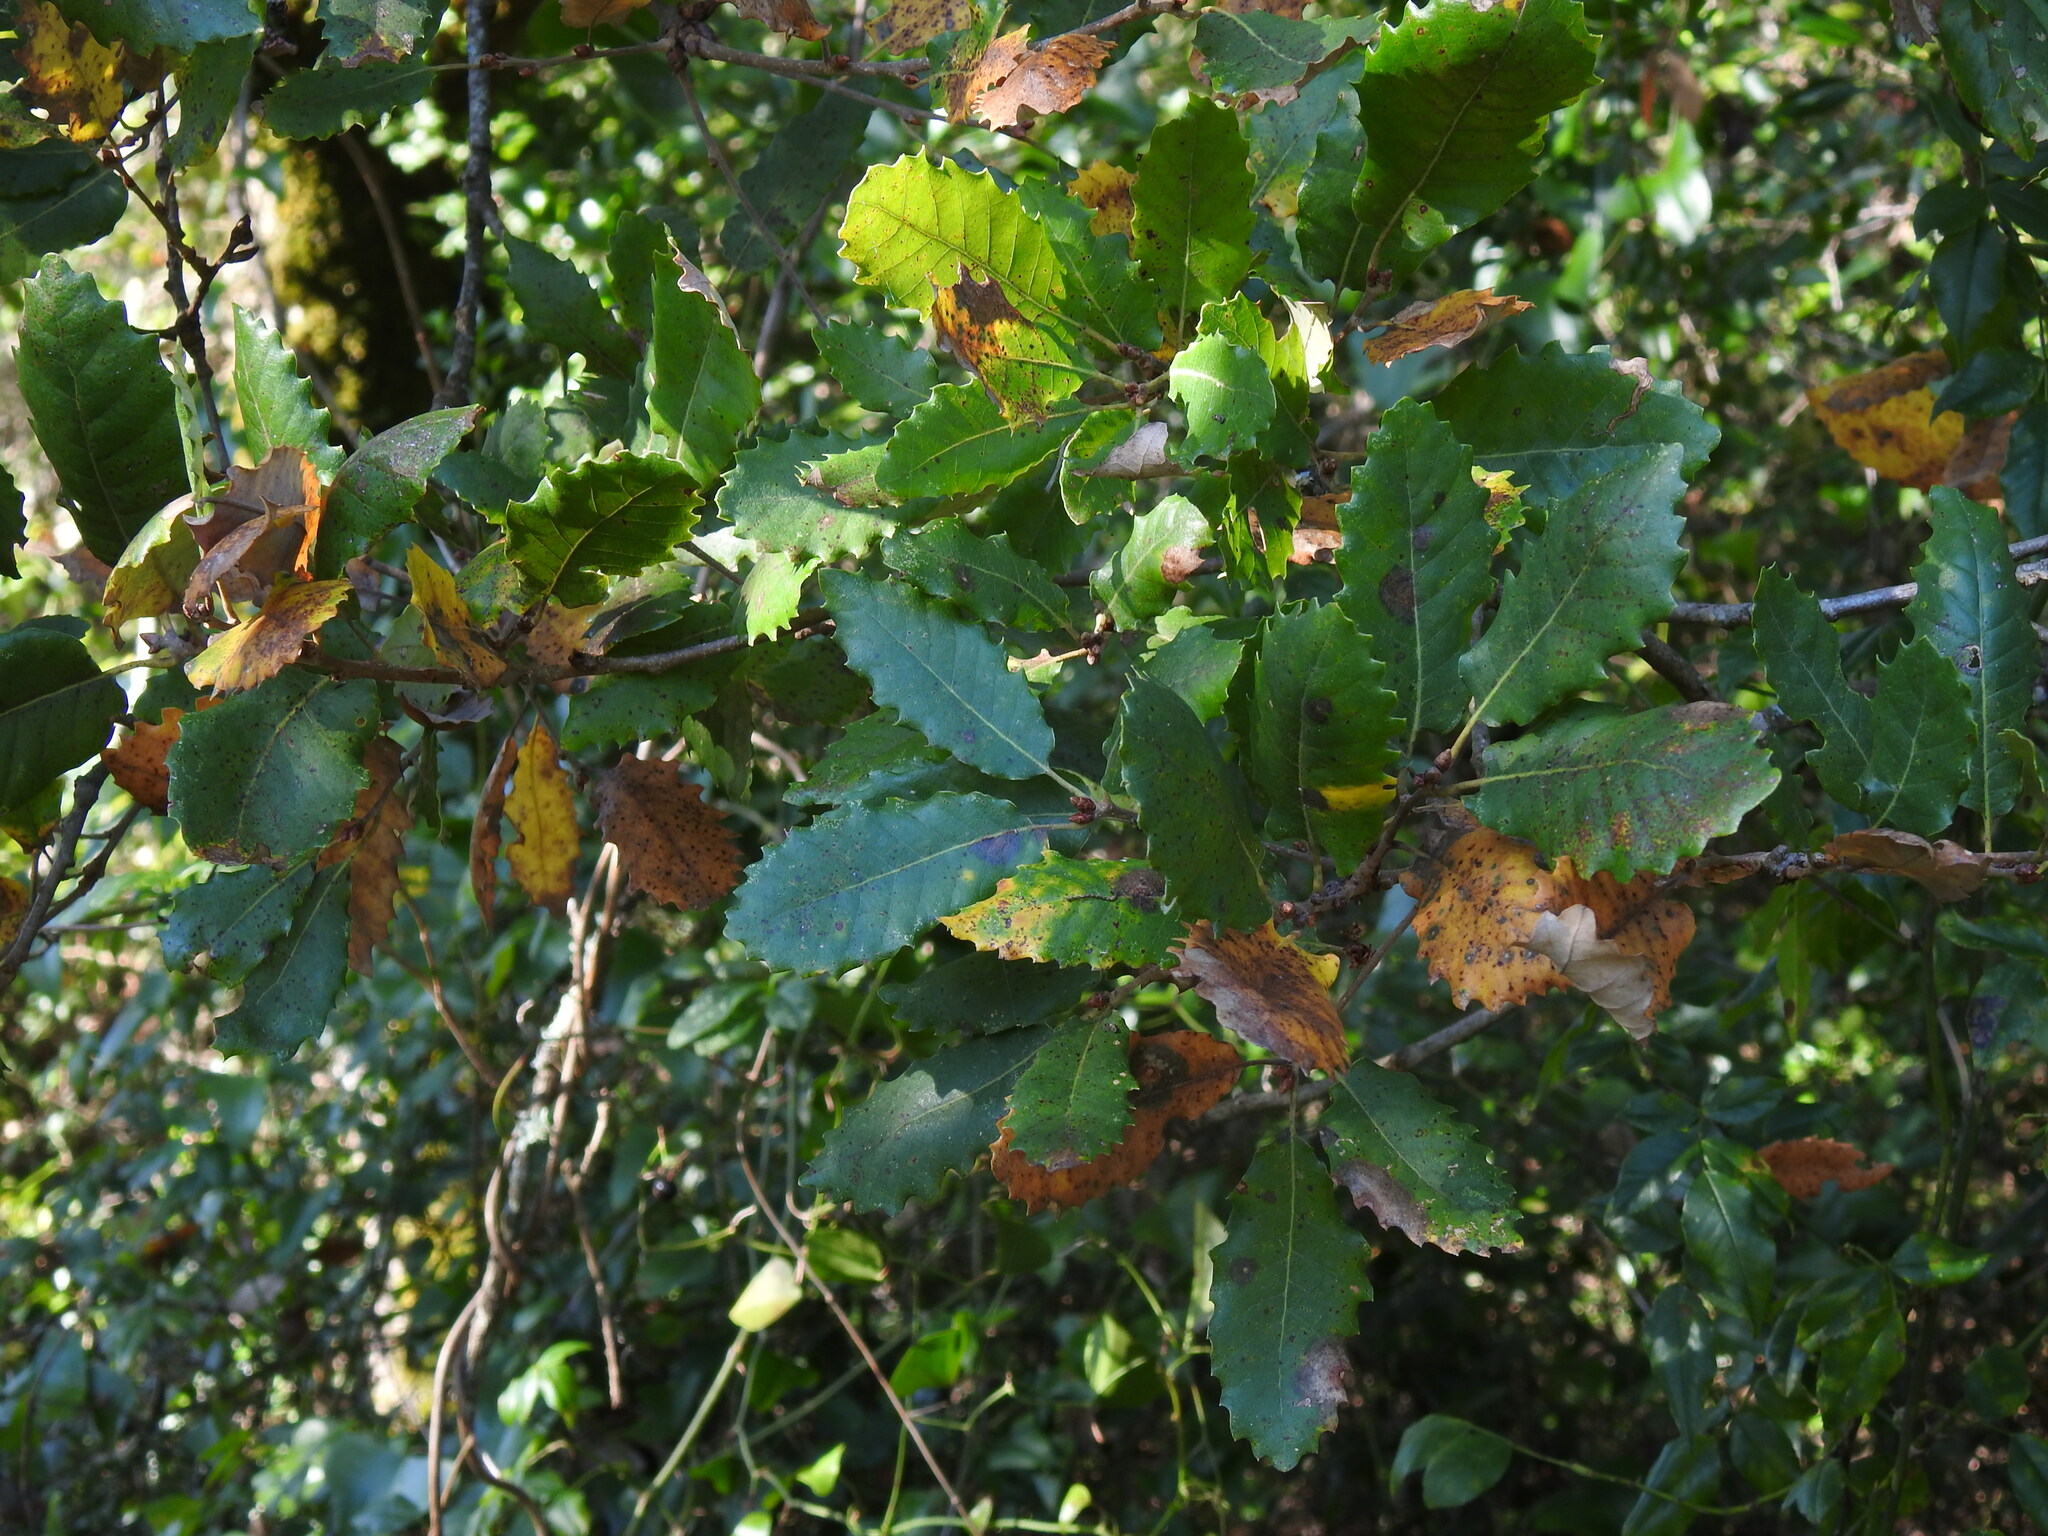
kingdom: Plantae
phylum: Tracheophyta
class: Magnoliopsida
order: Fagales
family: Fagaceae
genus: Quercus
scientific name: Quercus faginea
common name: Gall oak tree
